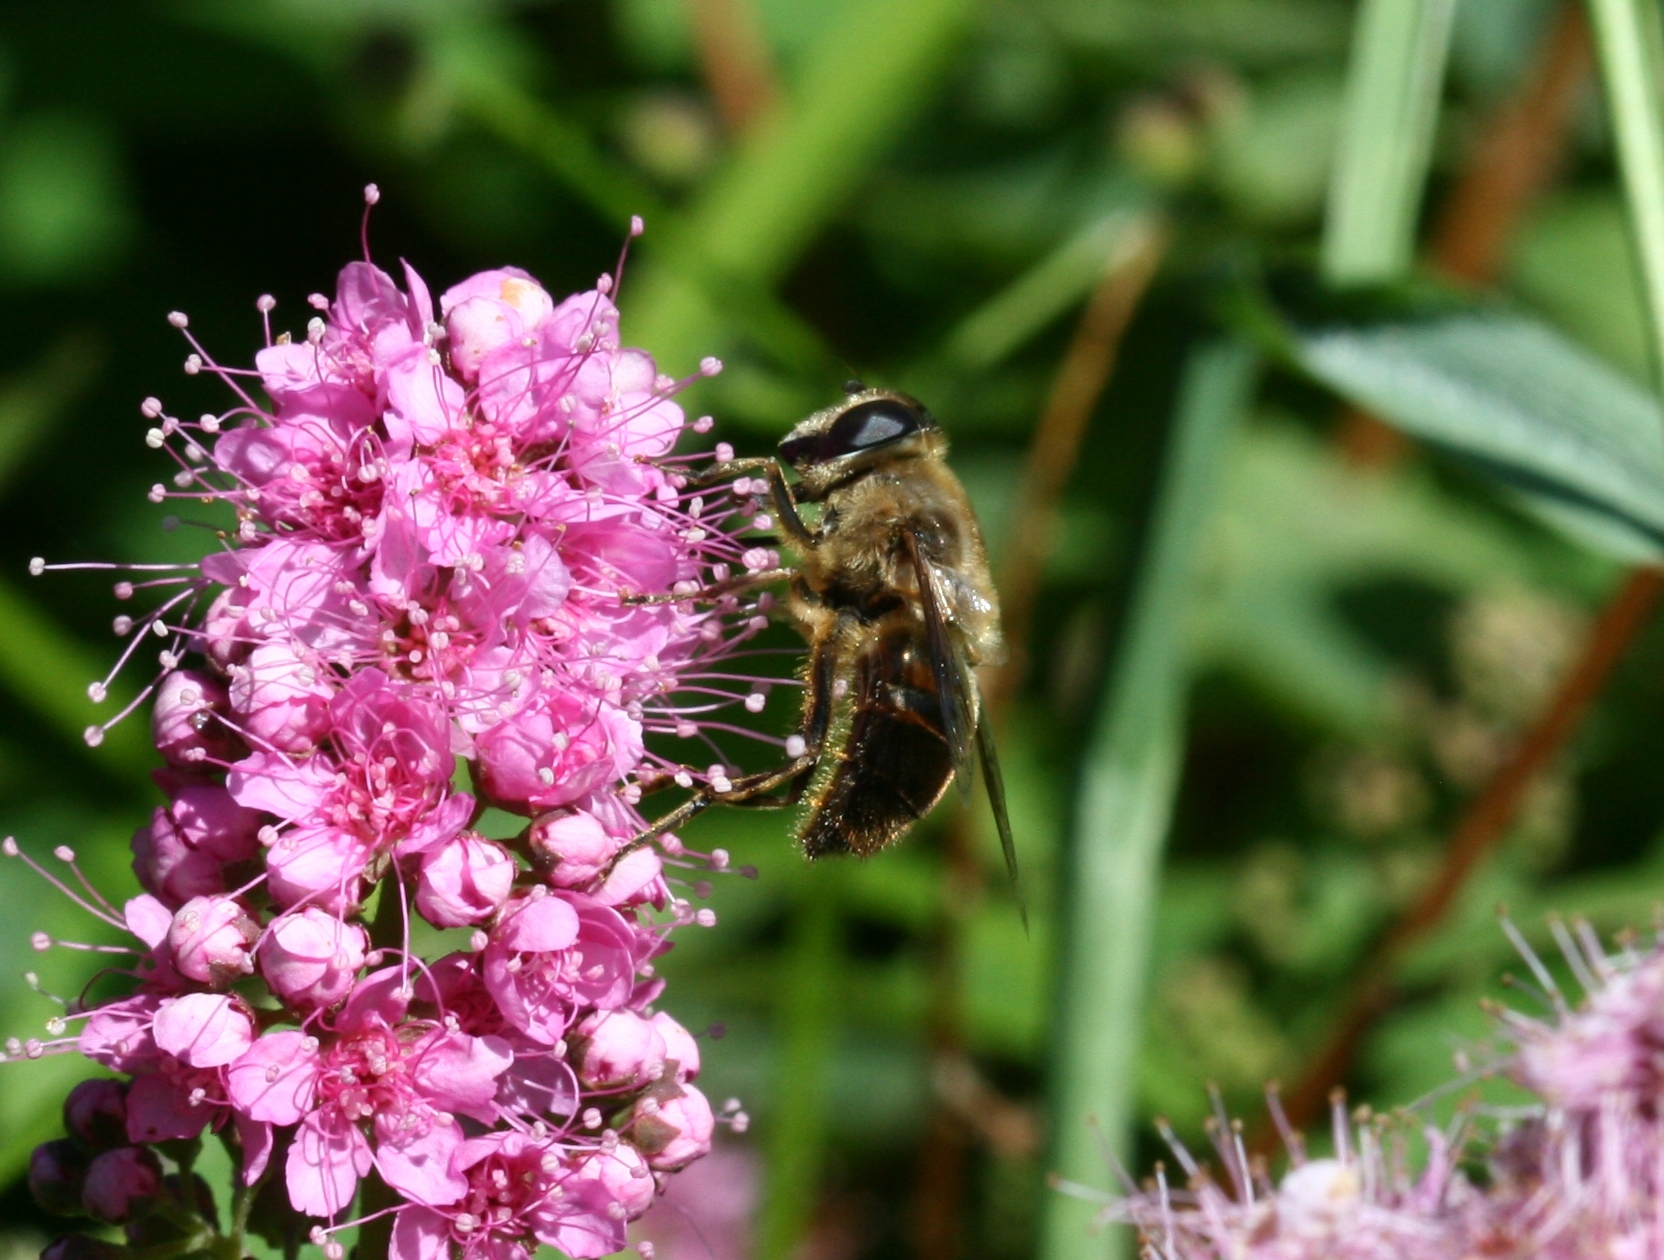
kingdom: Animalia
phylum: Arthropoda
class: Insecta
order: Diptera
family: Syrphidae
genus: Eristalis
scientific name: Eristalis tenax
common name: Drone fly
